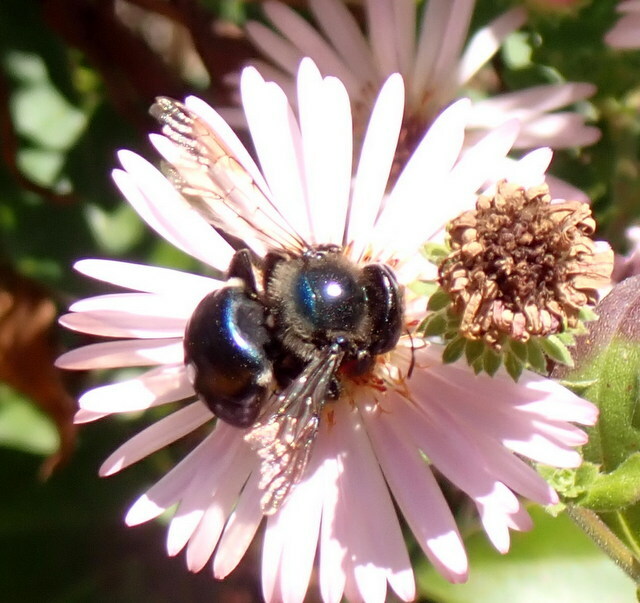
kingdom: Animalia
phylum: Arthropoda
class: Insecta
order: Hymenoptera
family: Apidae
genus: Xylocopa
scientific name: Xylocopa micans
